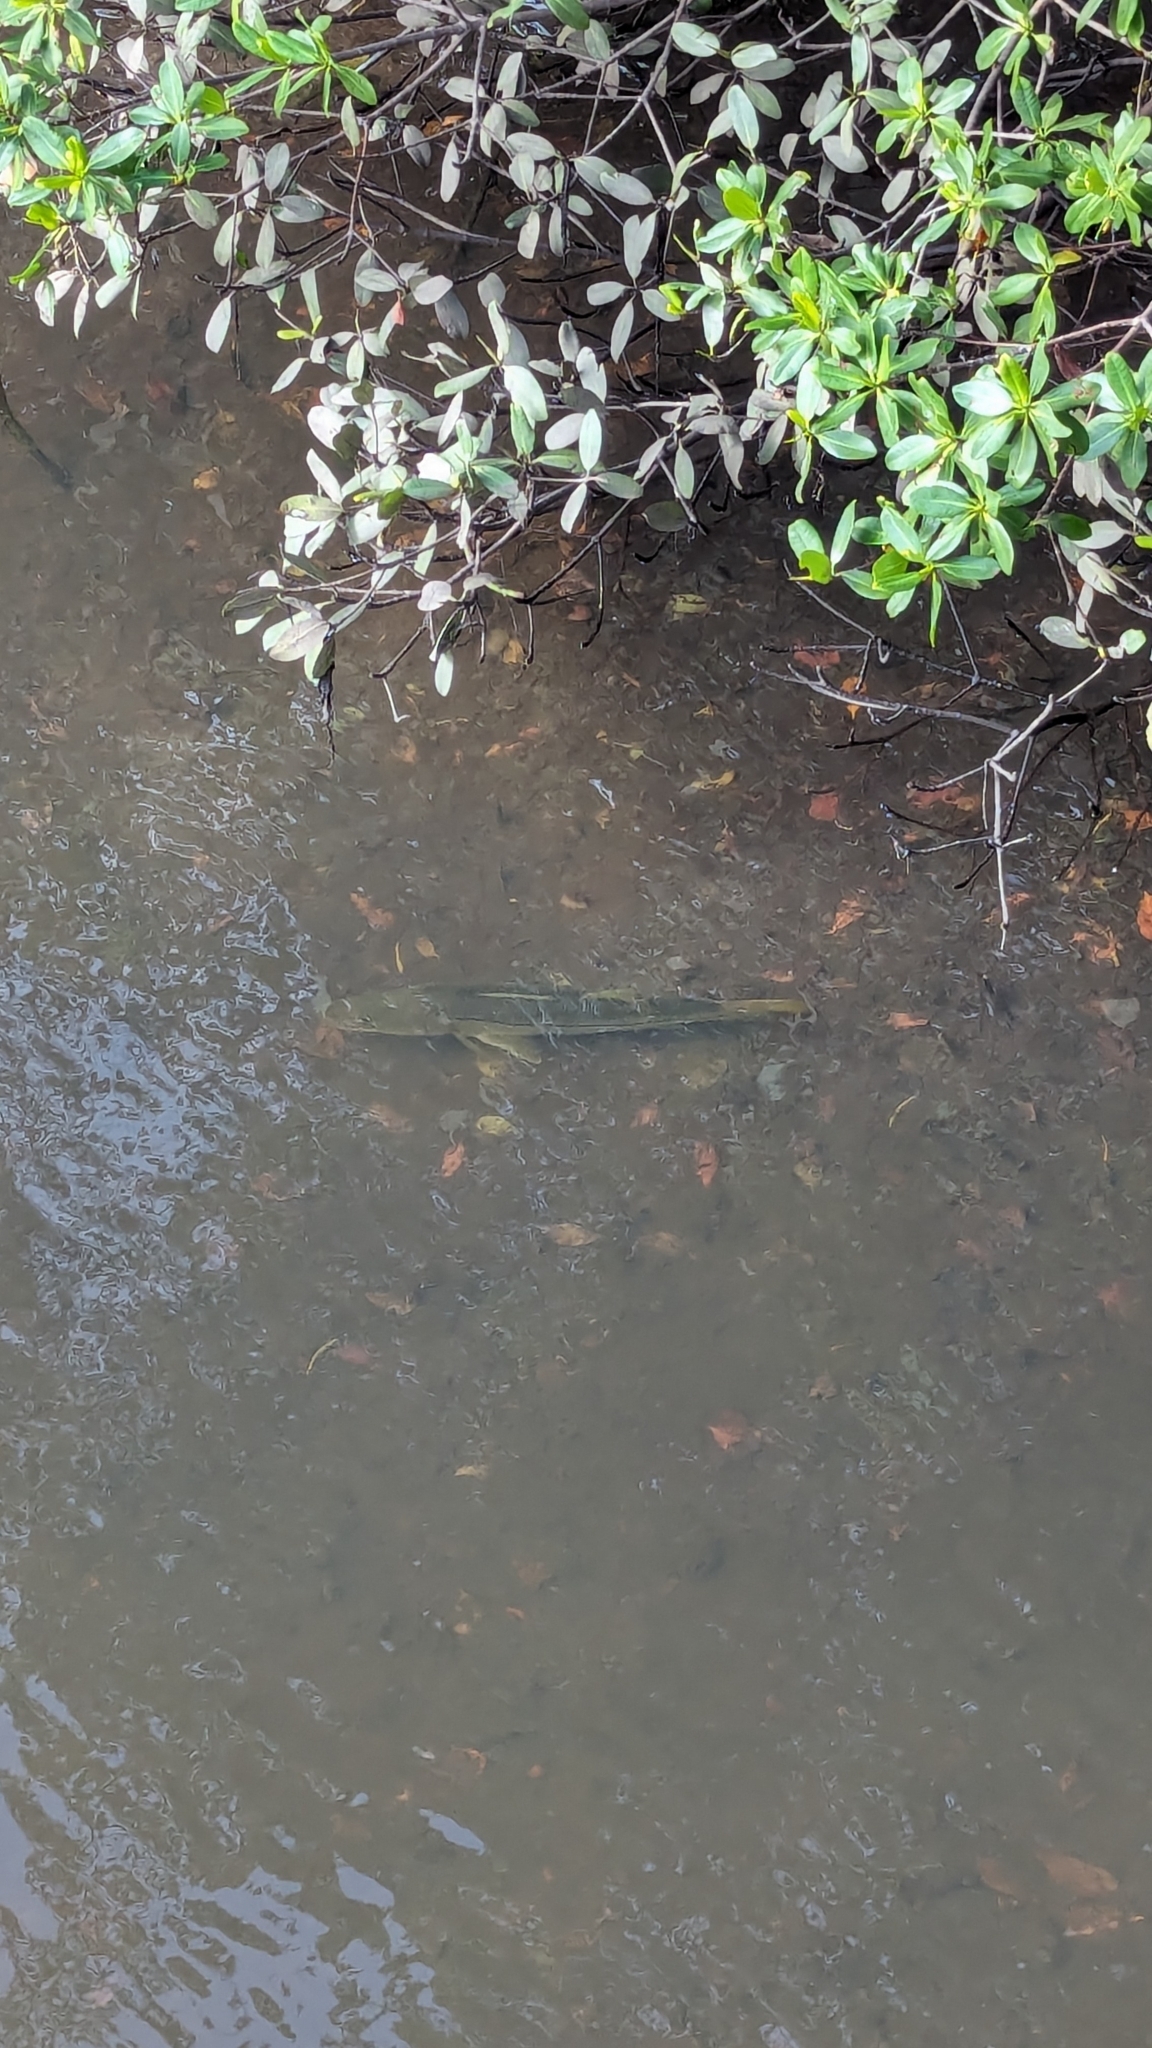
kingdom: Animalia
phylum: Chordata
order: Perciformes
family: Centropomidae
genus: Centropomus
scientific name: Centropomus undecimalis
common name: Snook
